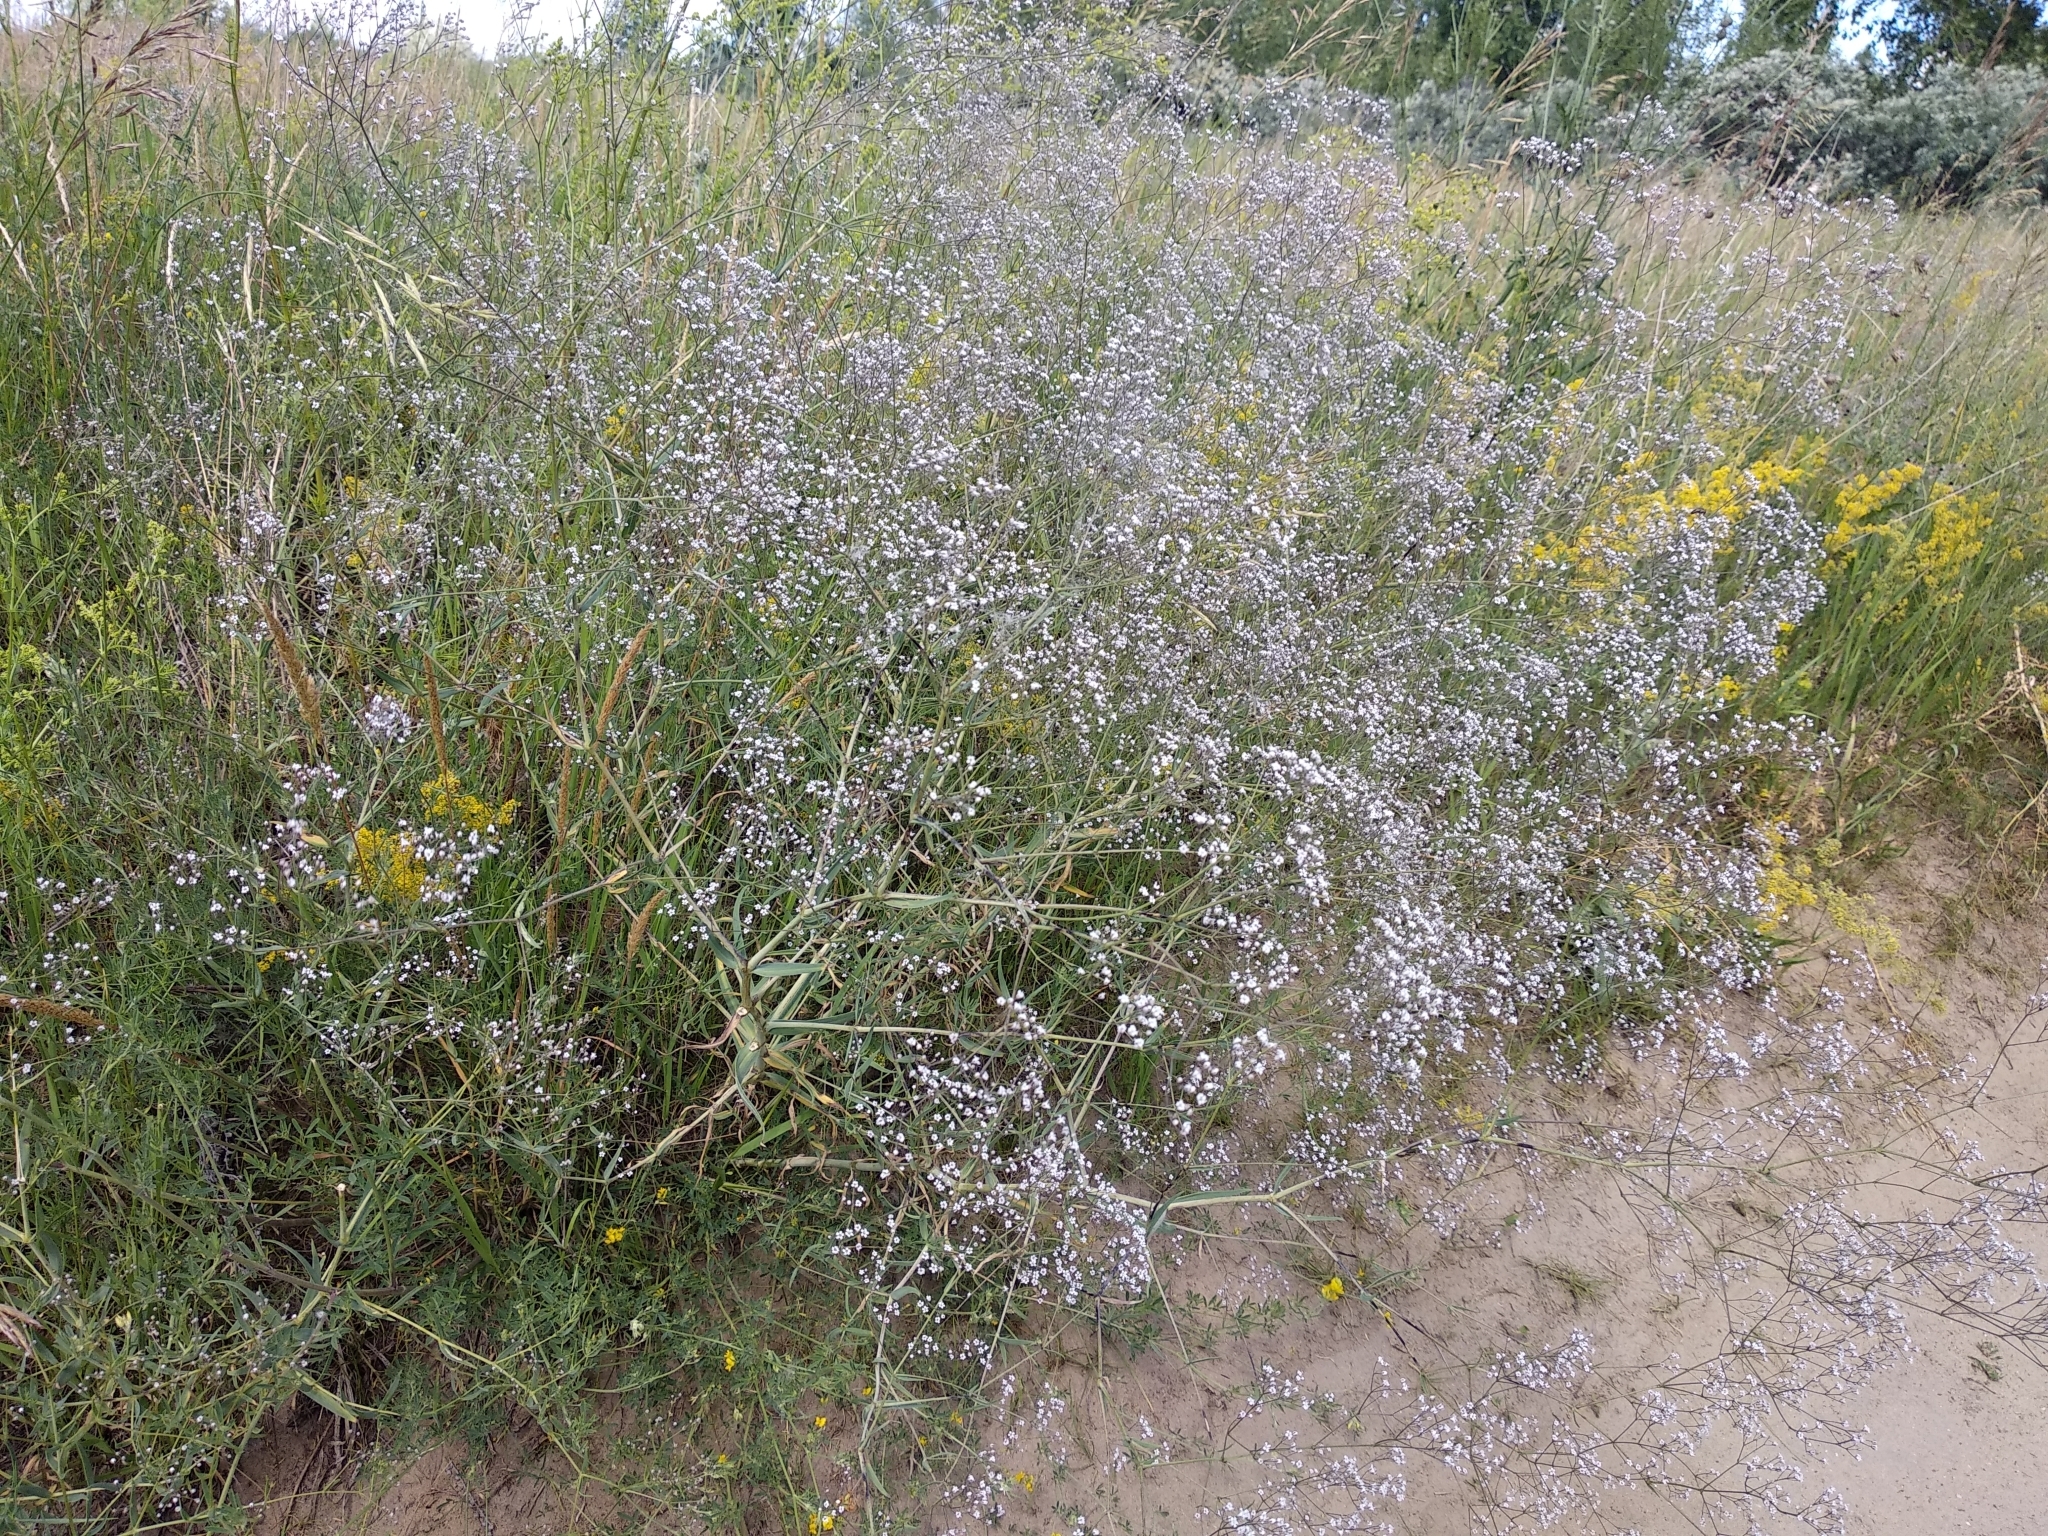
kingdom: Plantae
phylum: Tracheophyta
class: Magnoliopsida
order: Caryophyllales
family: Caryophyllaceae
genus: Gypsophila
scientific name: Gypsophila paniculata
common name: Baby's-breath
